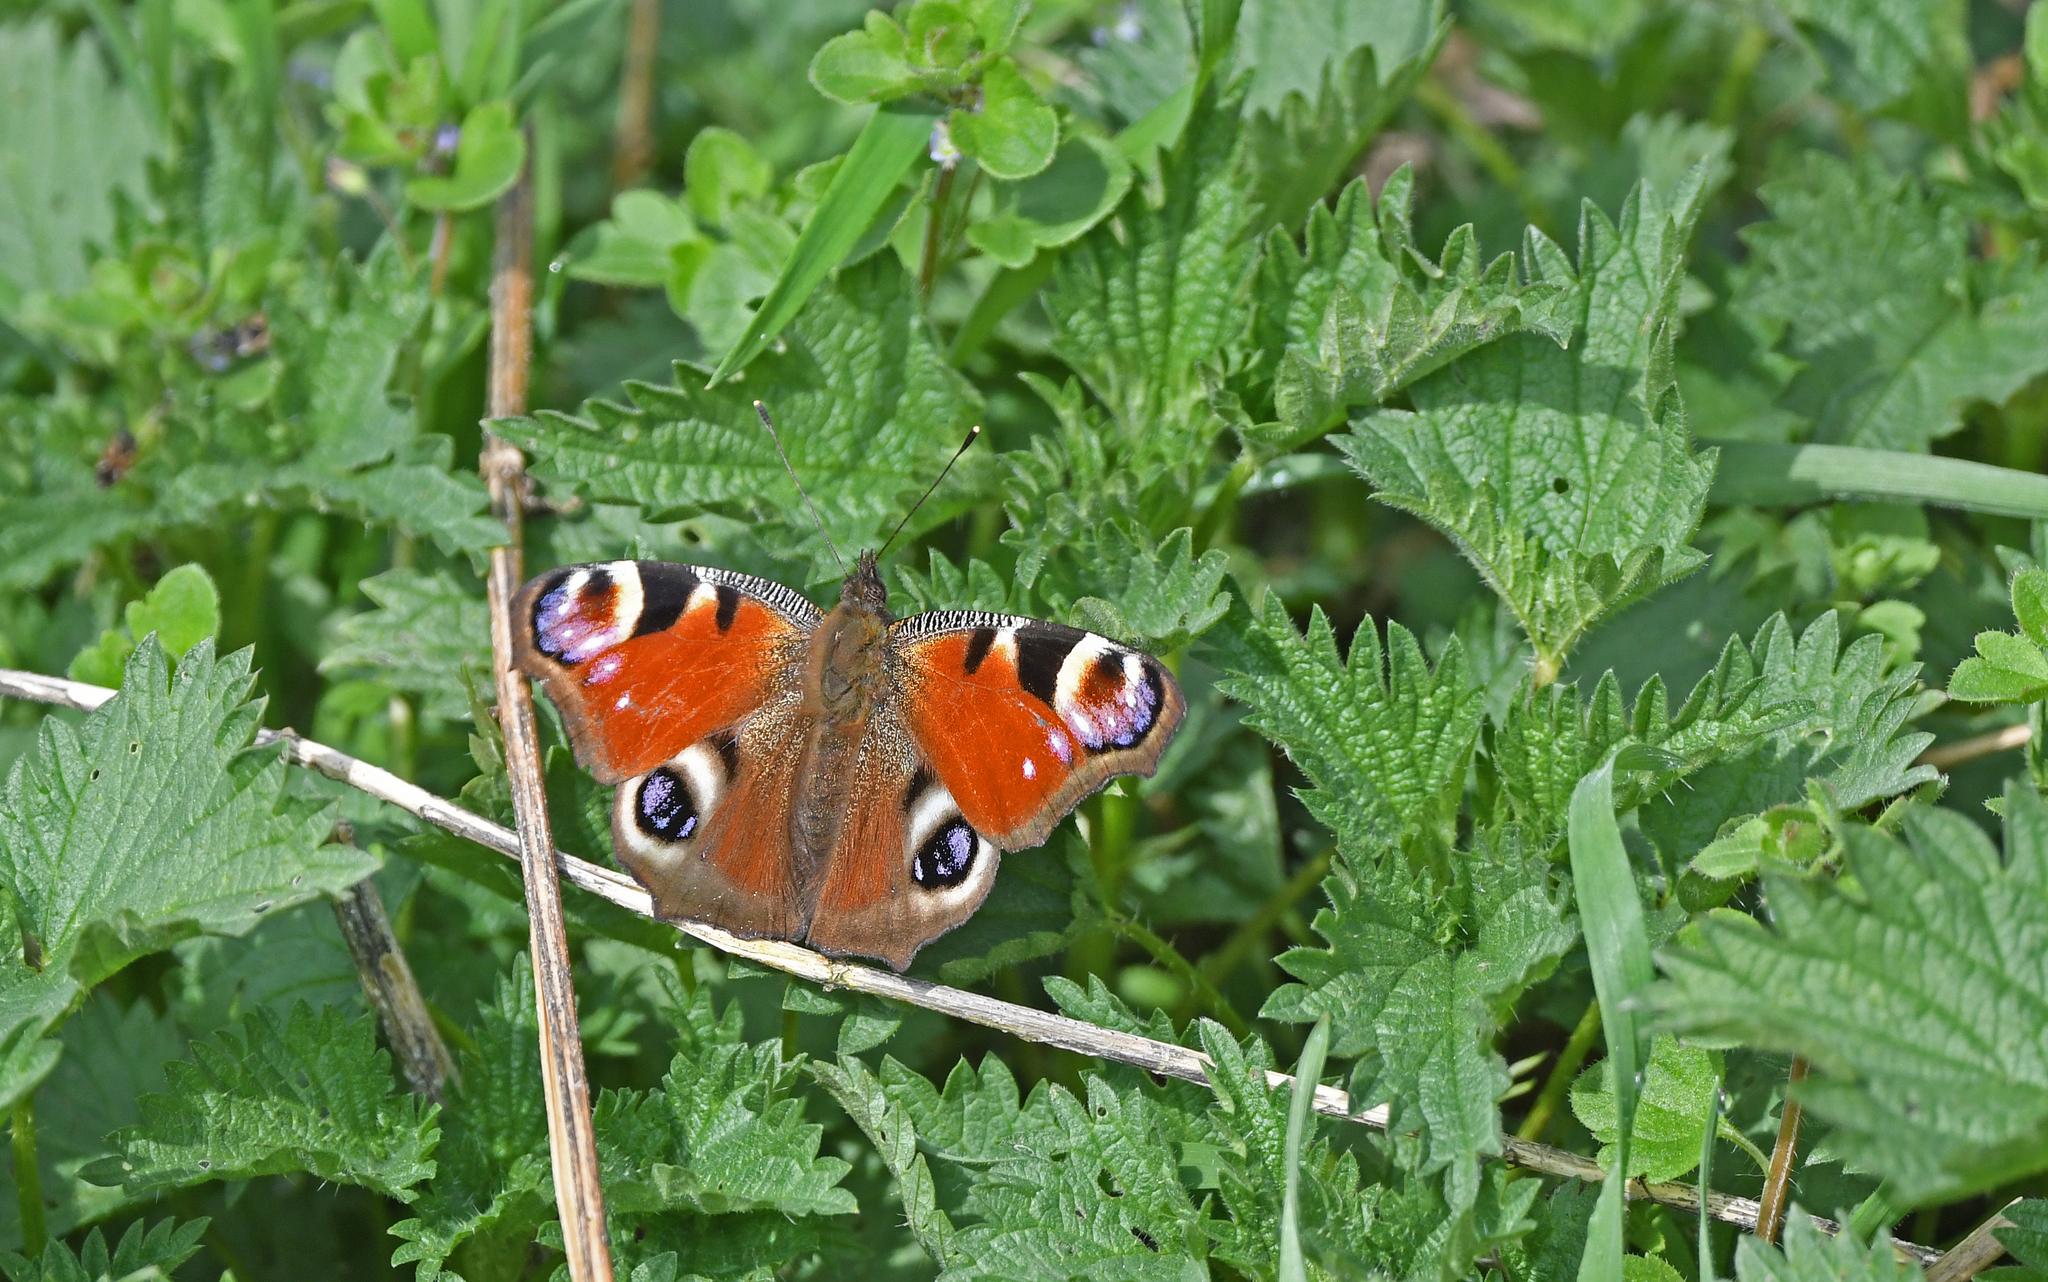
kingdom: Animalia
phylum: Arthropoda
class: Insecta
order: Lepidoptera
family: Nymphalidae
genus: Aglais
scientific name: Aglais io
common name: Peacock
